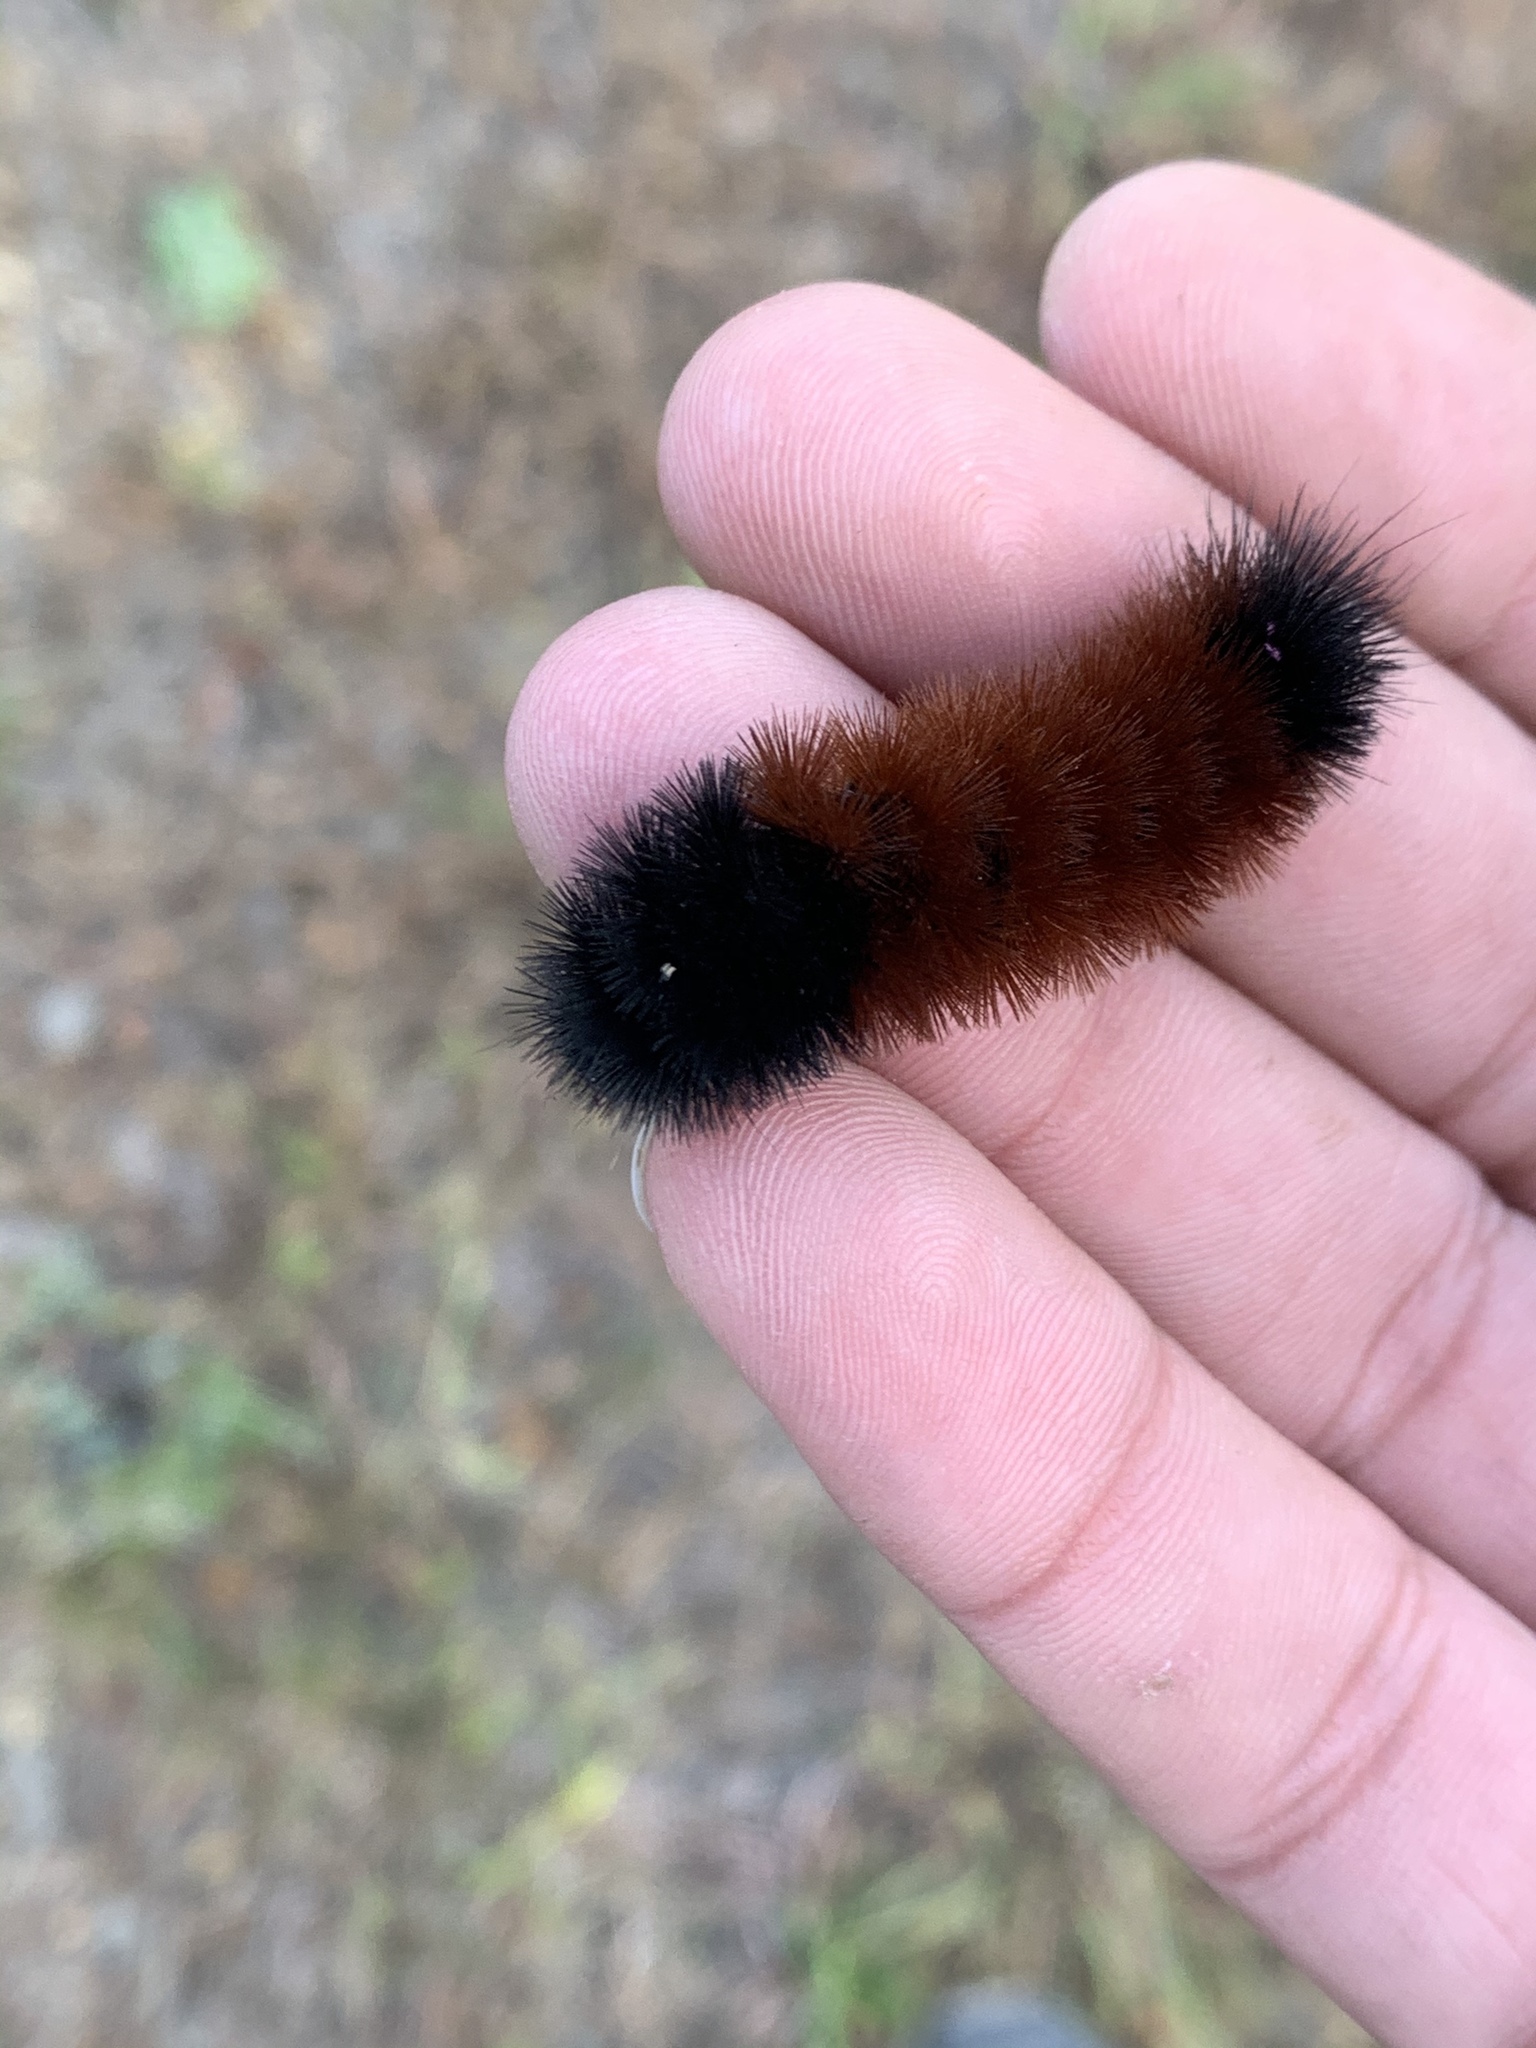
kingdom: Animalia
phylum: Arthropoda
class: Insecta
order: Lepidoptera
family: Erebidae
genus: Pyrrharctia
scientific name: Pyrrharctia isabella
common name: Isabella tiger moth
